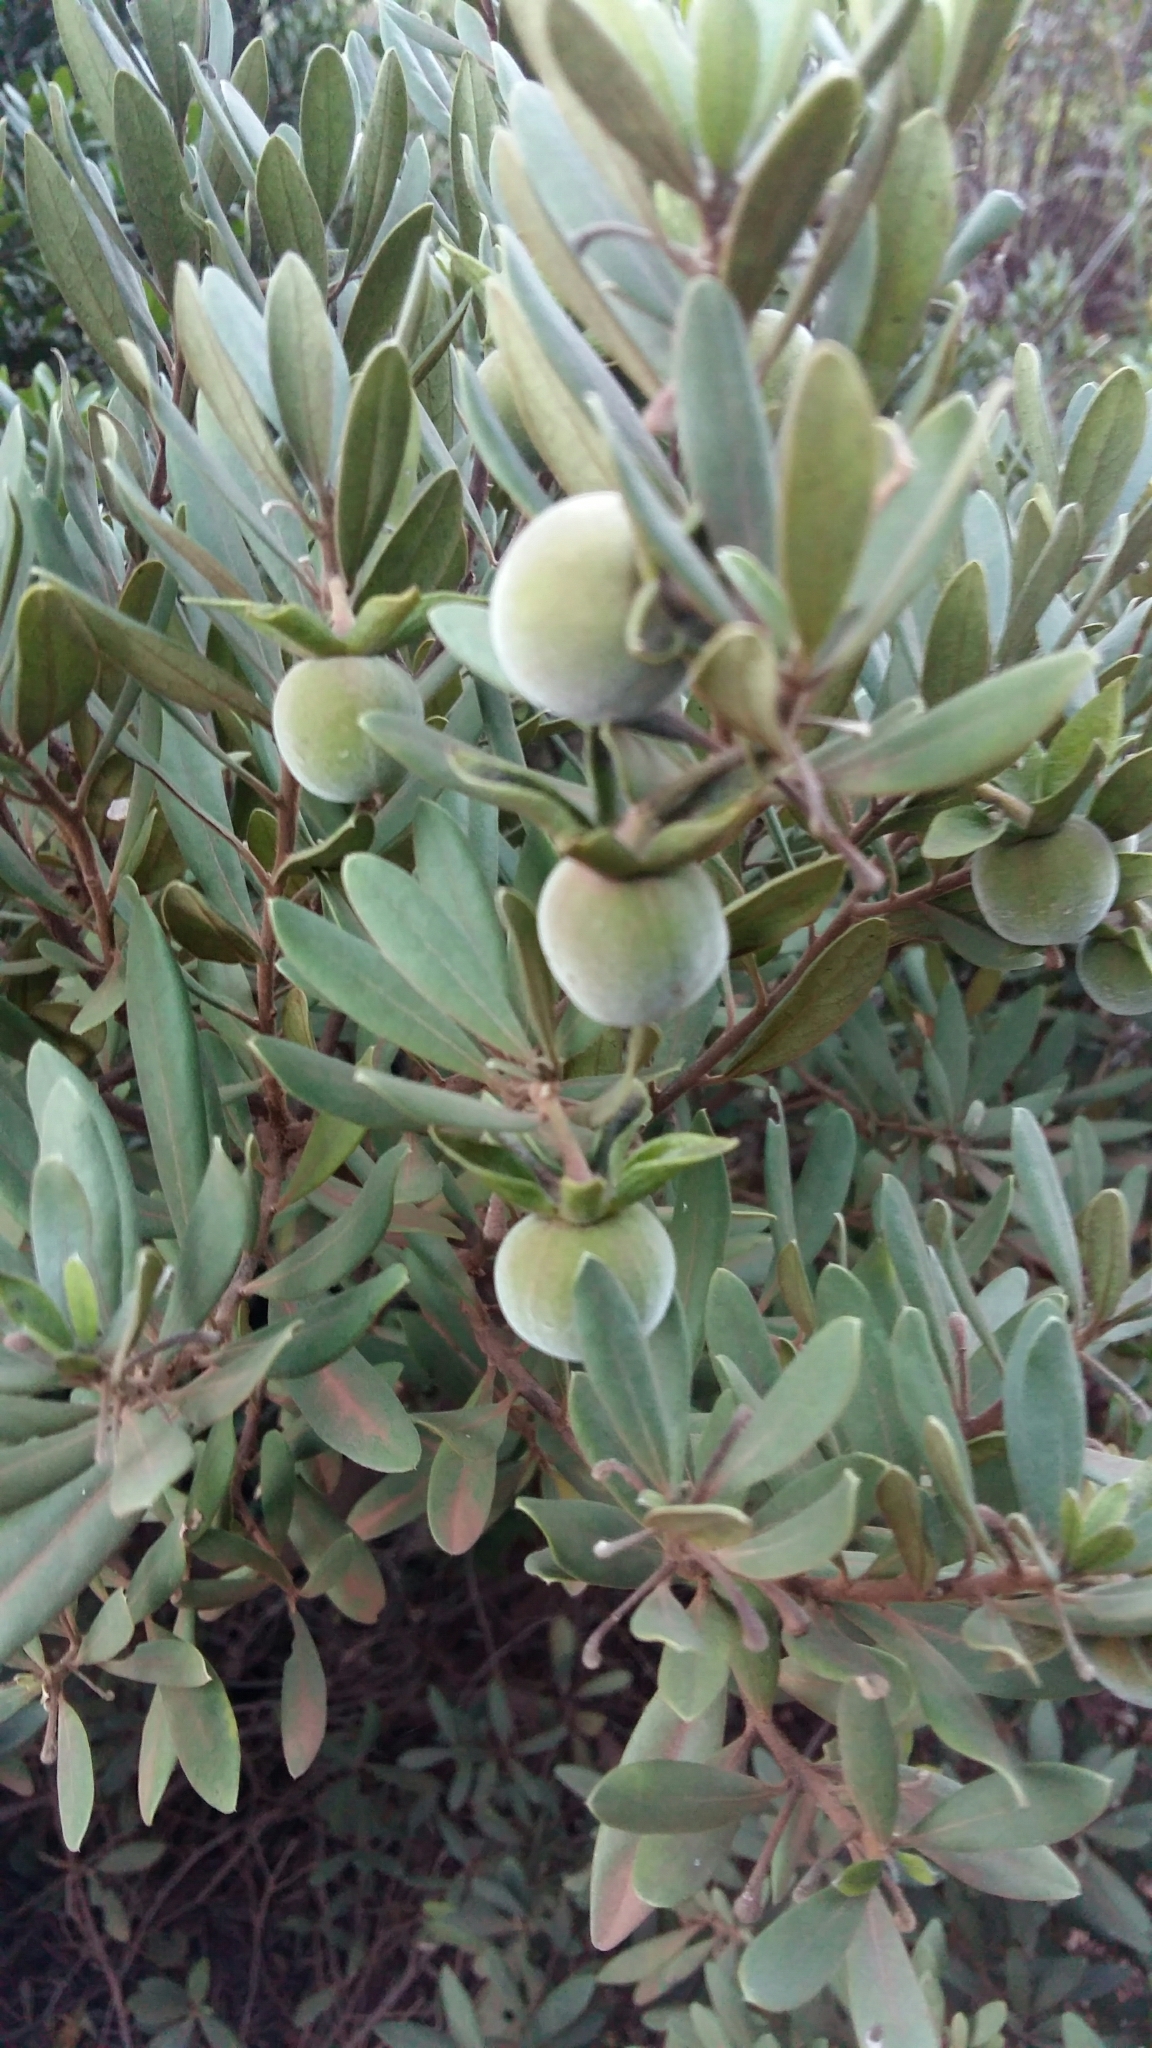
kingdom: Plantae
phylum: Tracheophyta
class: Magnoliopsida
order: Ericales
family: Ebenaceae
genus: Diospyros
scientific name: Diospyros dichrophylla
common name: Common star-apple
